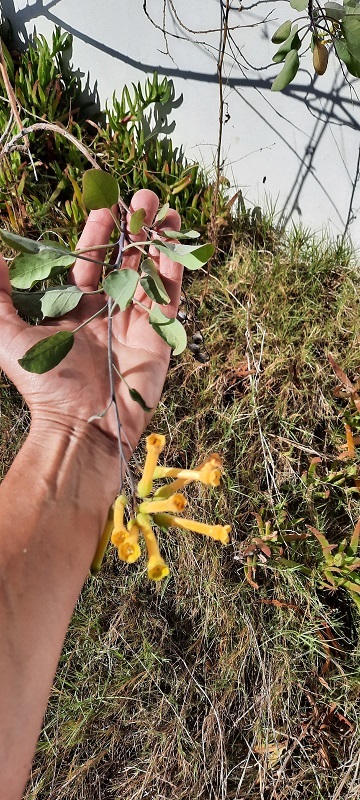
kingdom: Plantae
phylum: Tracheophyta
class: Magnoliopsida
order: Solanales
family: Solanaceae
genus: Nicotiana
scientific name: Nicotiana glauca
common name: Tree tobacco
